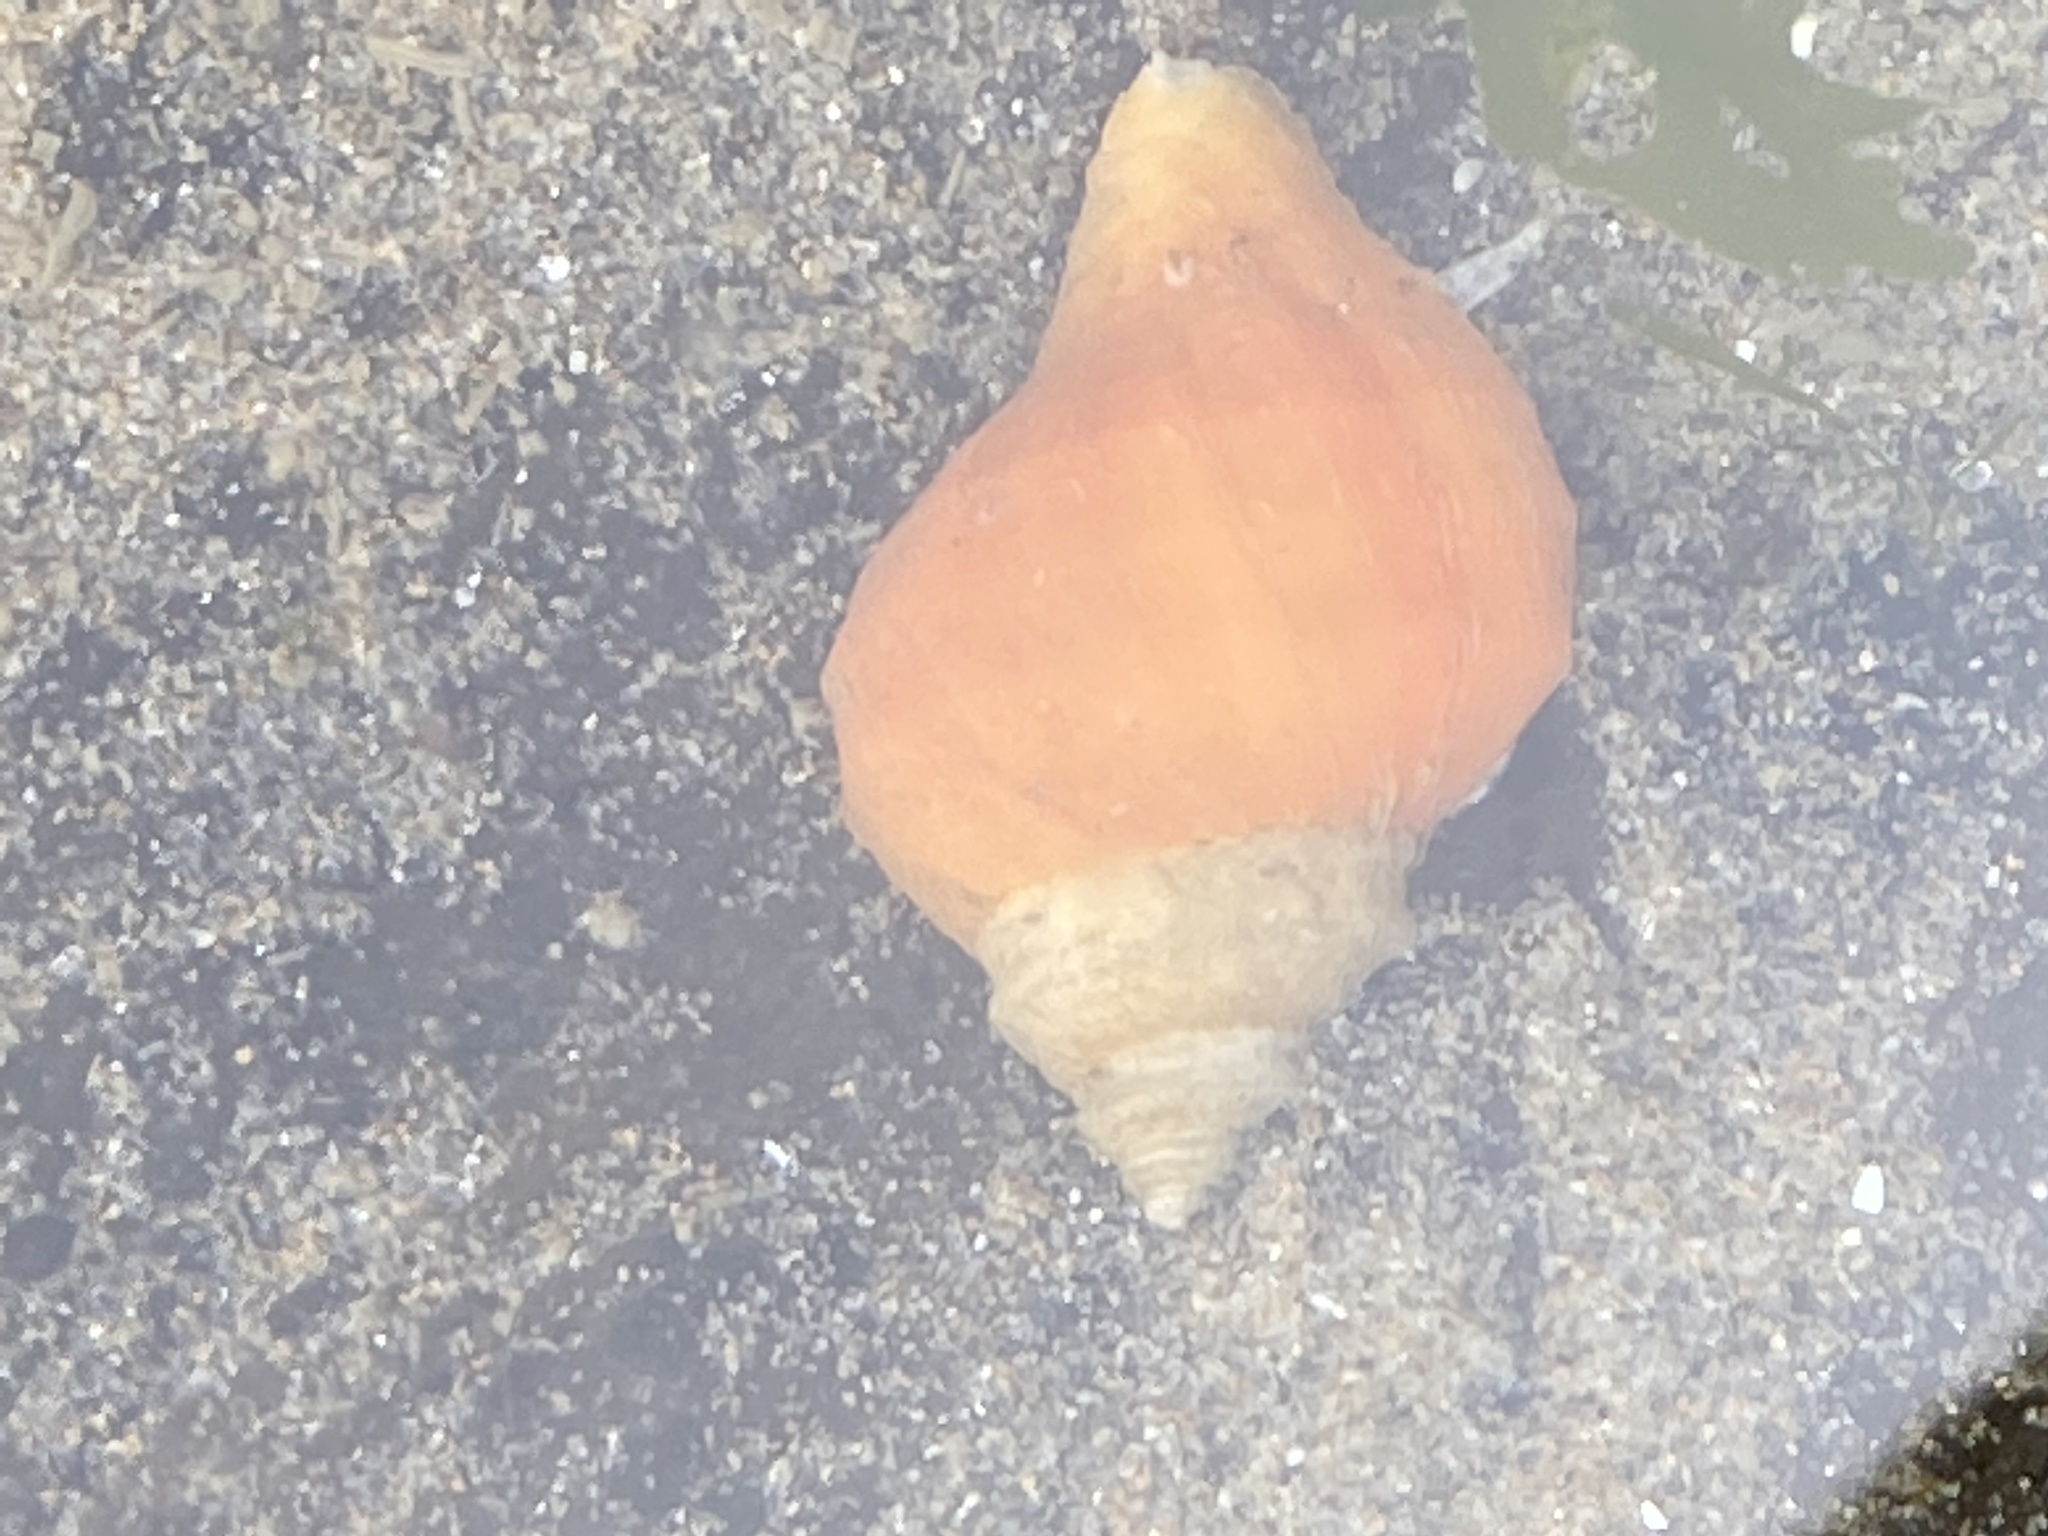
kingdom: Animalia
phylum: Mollusca
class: Gastropoda
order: Neogastropoda
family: Muricidae
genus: Nucella
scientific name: Nucella lamellosa
